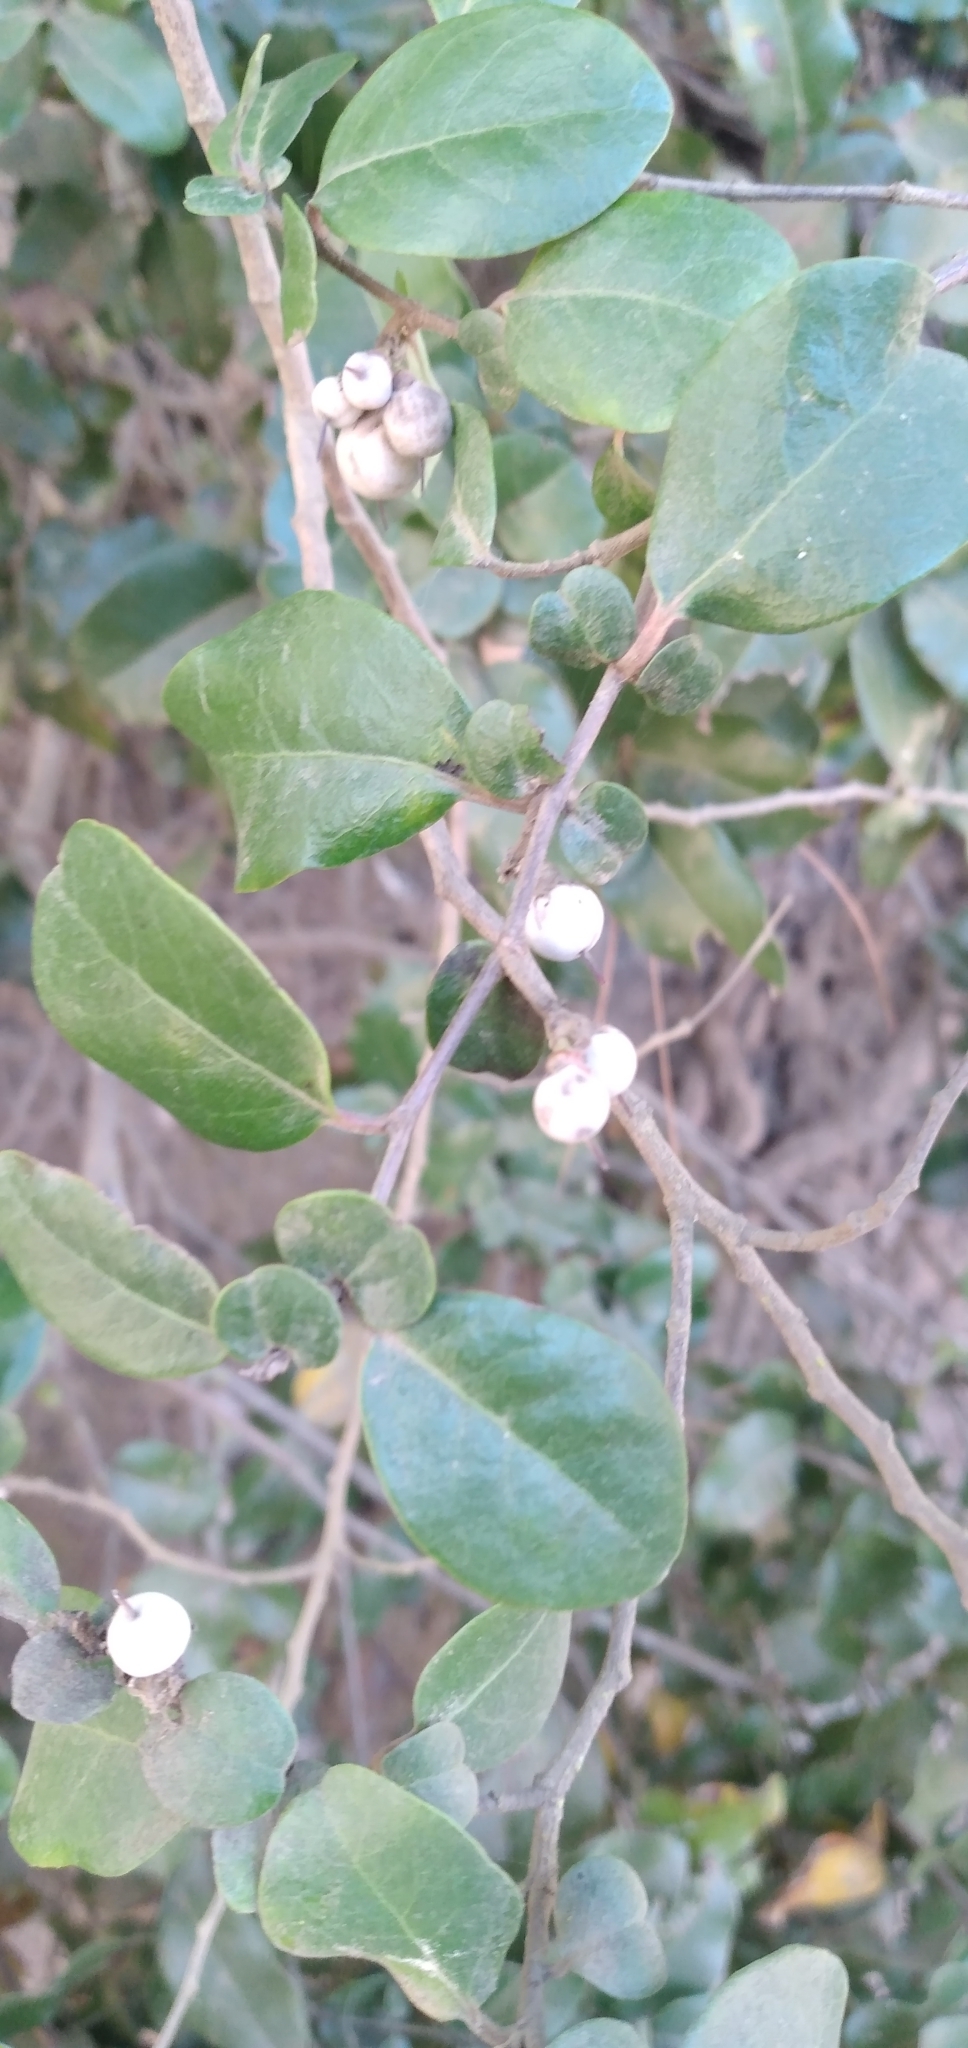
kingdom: Plantae
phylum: Tracheophyta
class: Magnoliopsida
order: Malpighiales
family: Salicaceae
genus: Azara
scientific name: Azara celastrina
